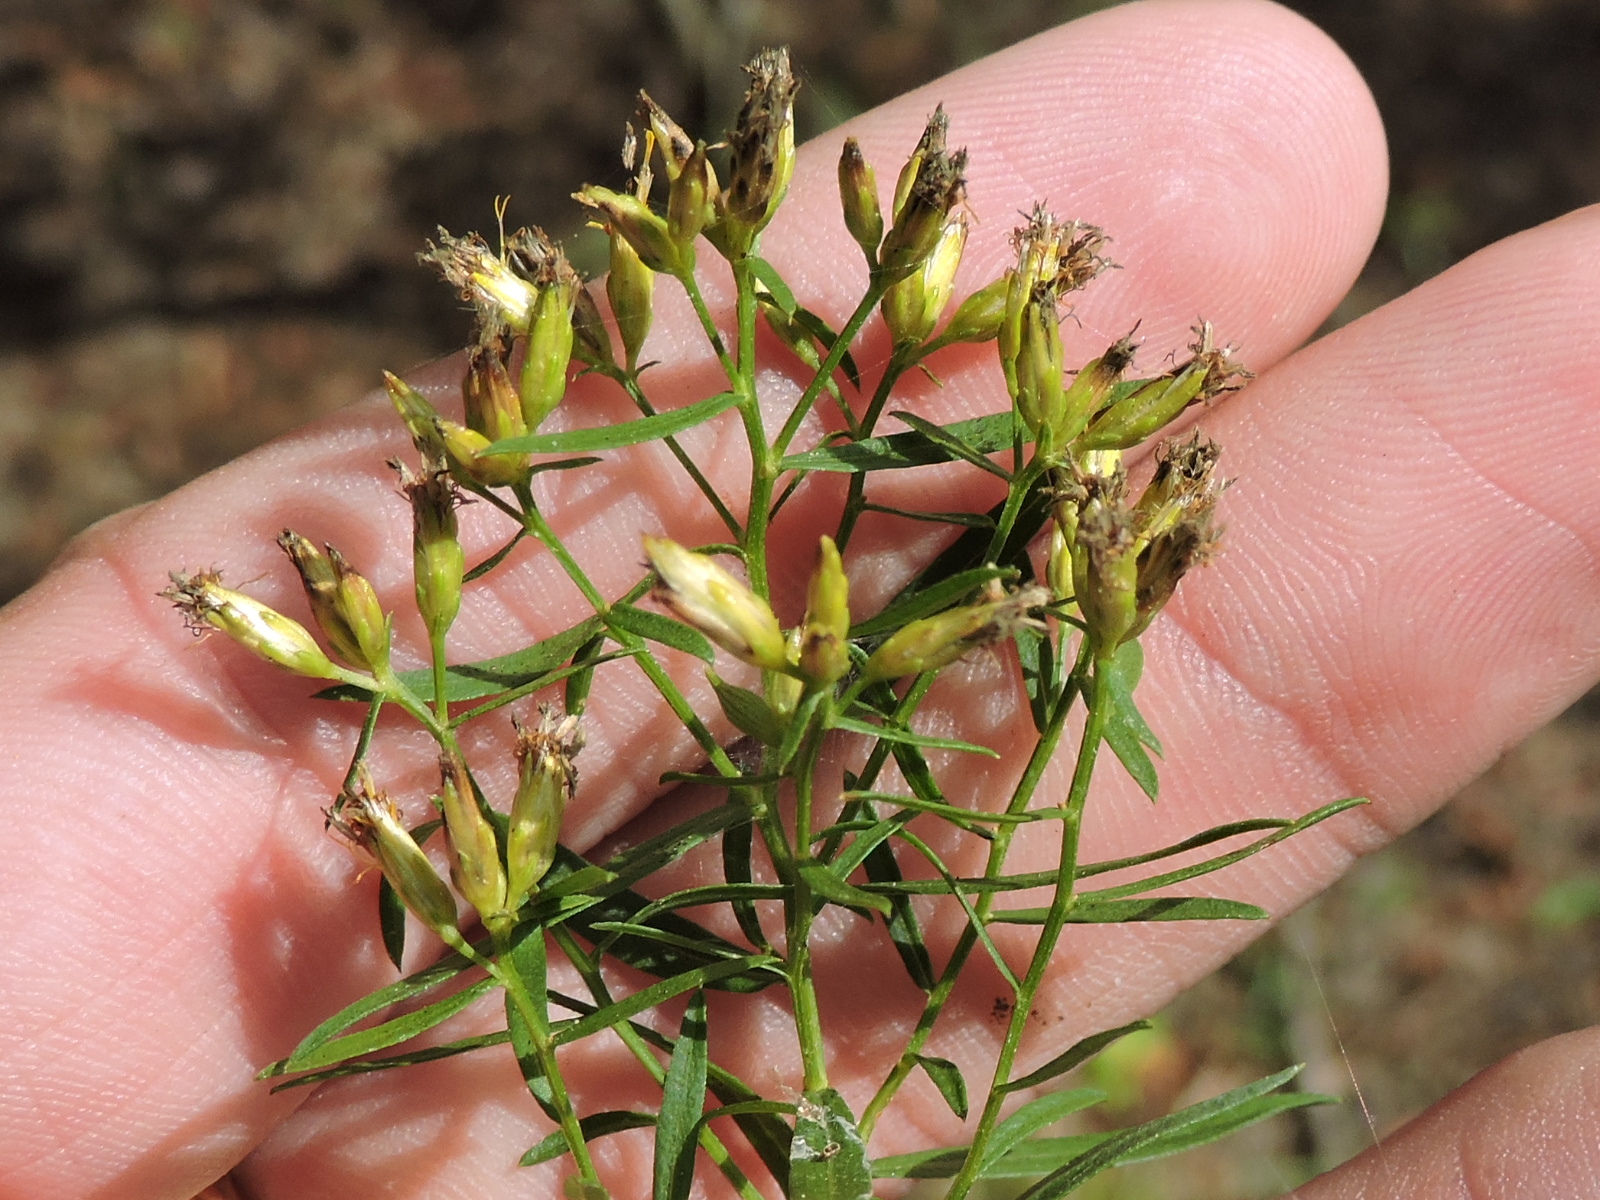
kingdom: Plantae
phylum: Tracheophyta
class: Magnoliopsida
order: Asterales
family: Asteraceae
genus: Euthamia
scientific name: Euthamia leptocephala
